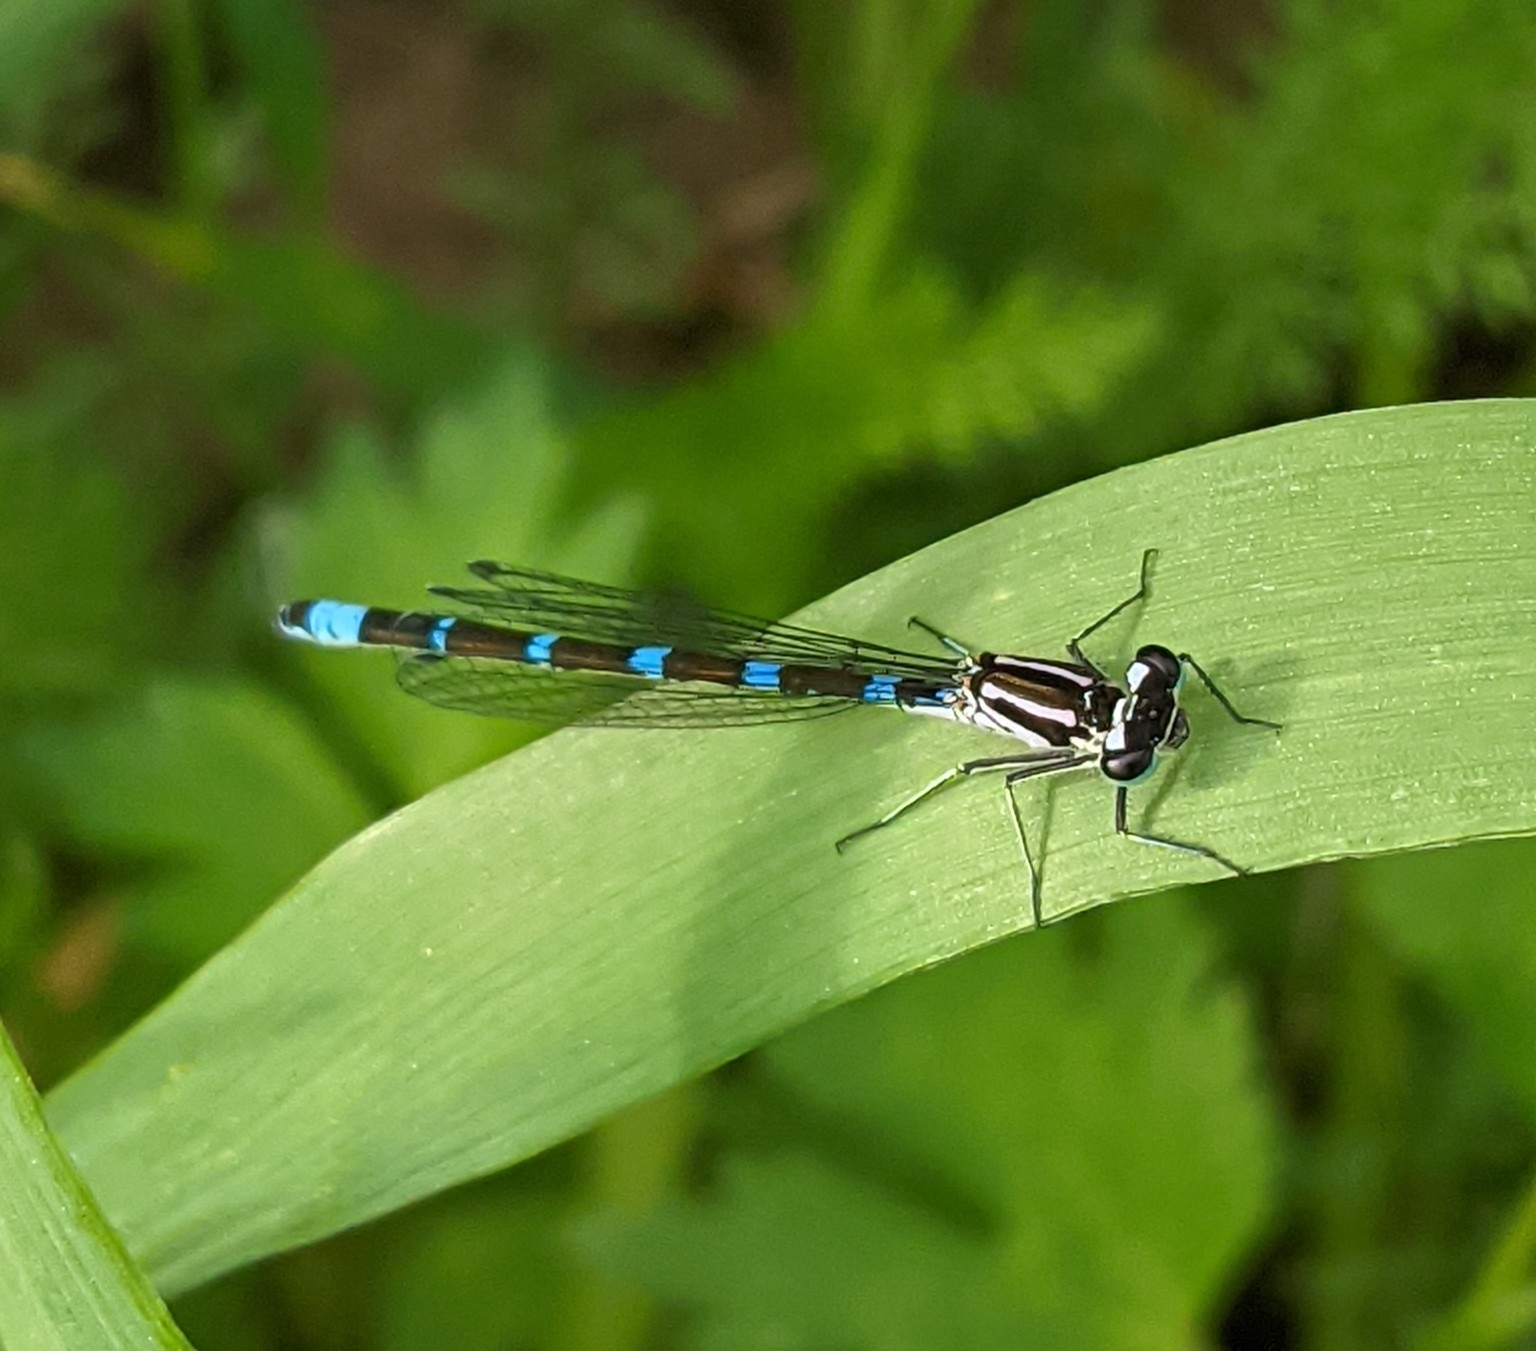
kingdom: Animalia
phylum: Arthropoda
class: Insecta
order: Odonata
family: Coenagrionidae
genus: Coenagrion
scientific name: Coenagrion pulchellum
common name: Variable bluet
